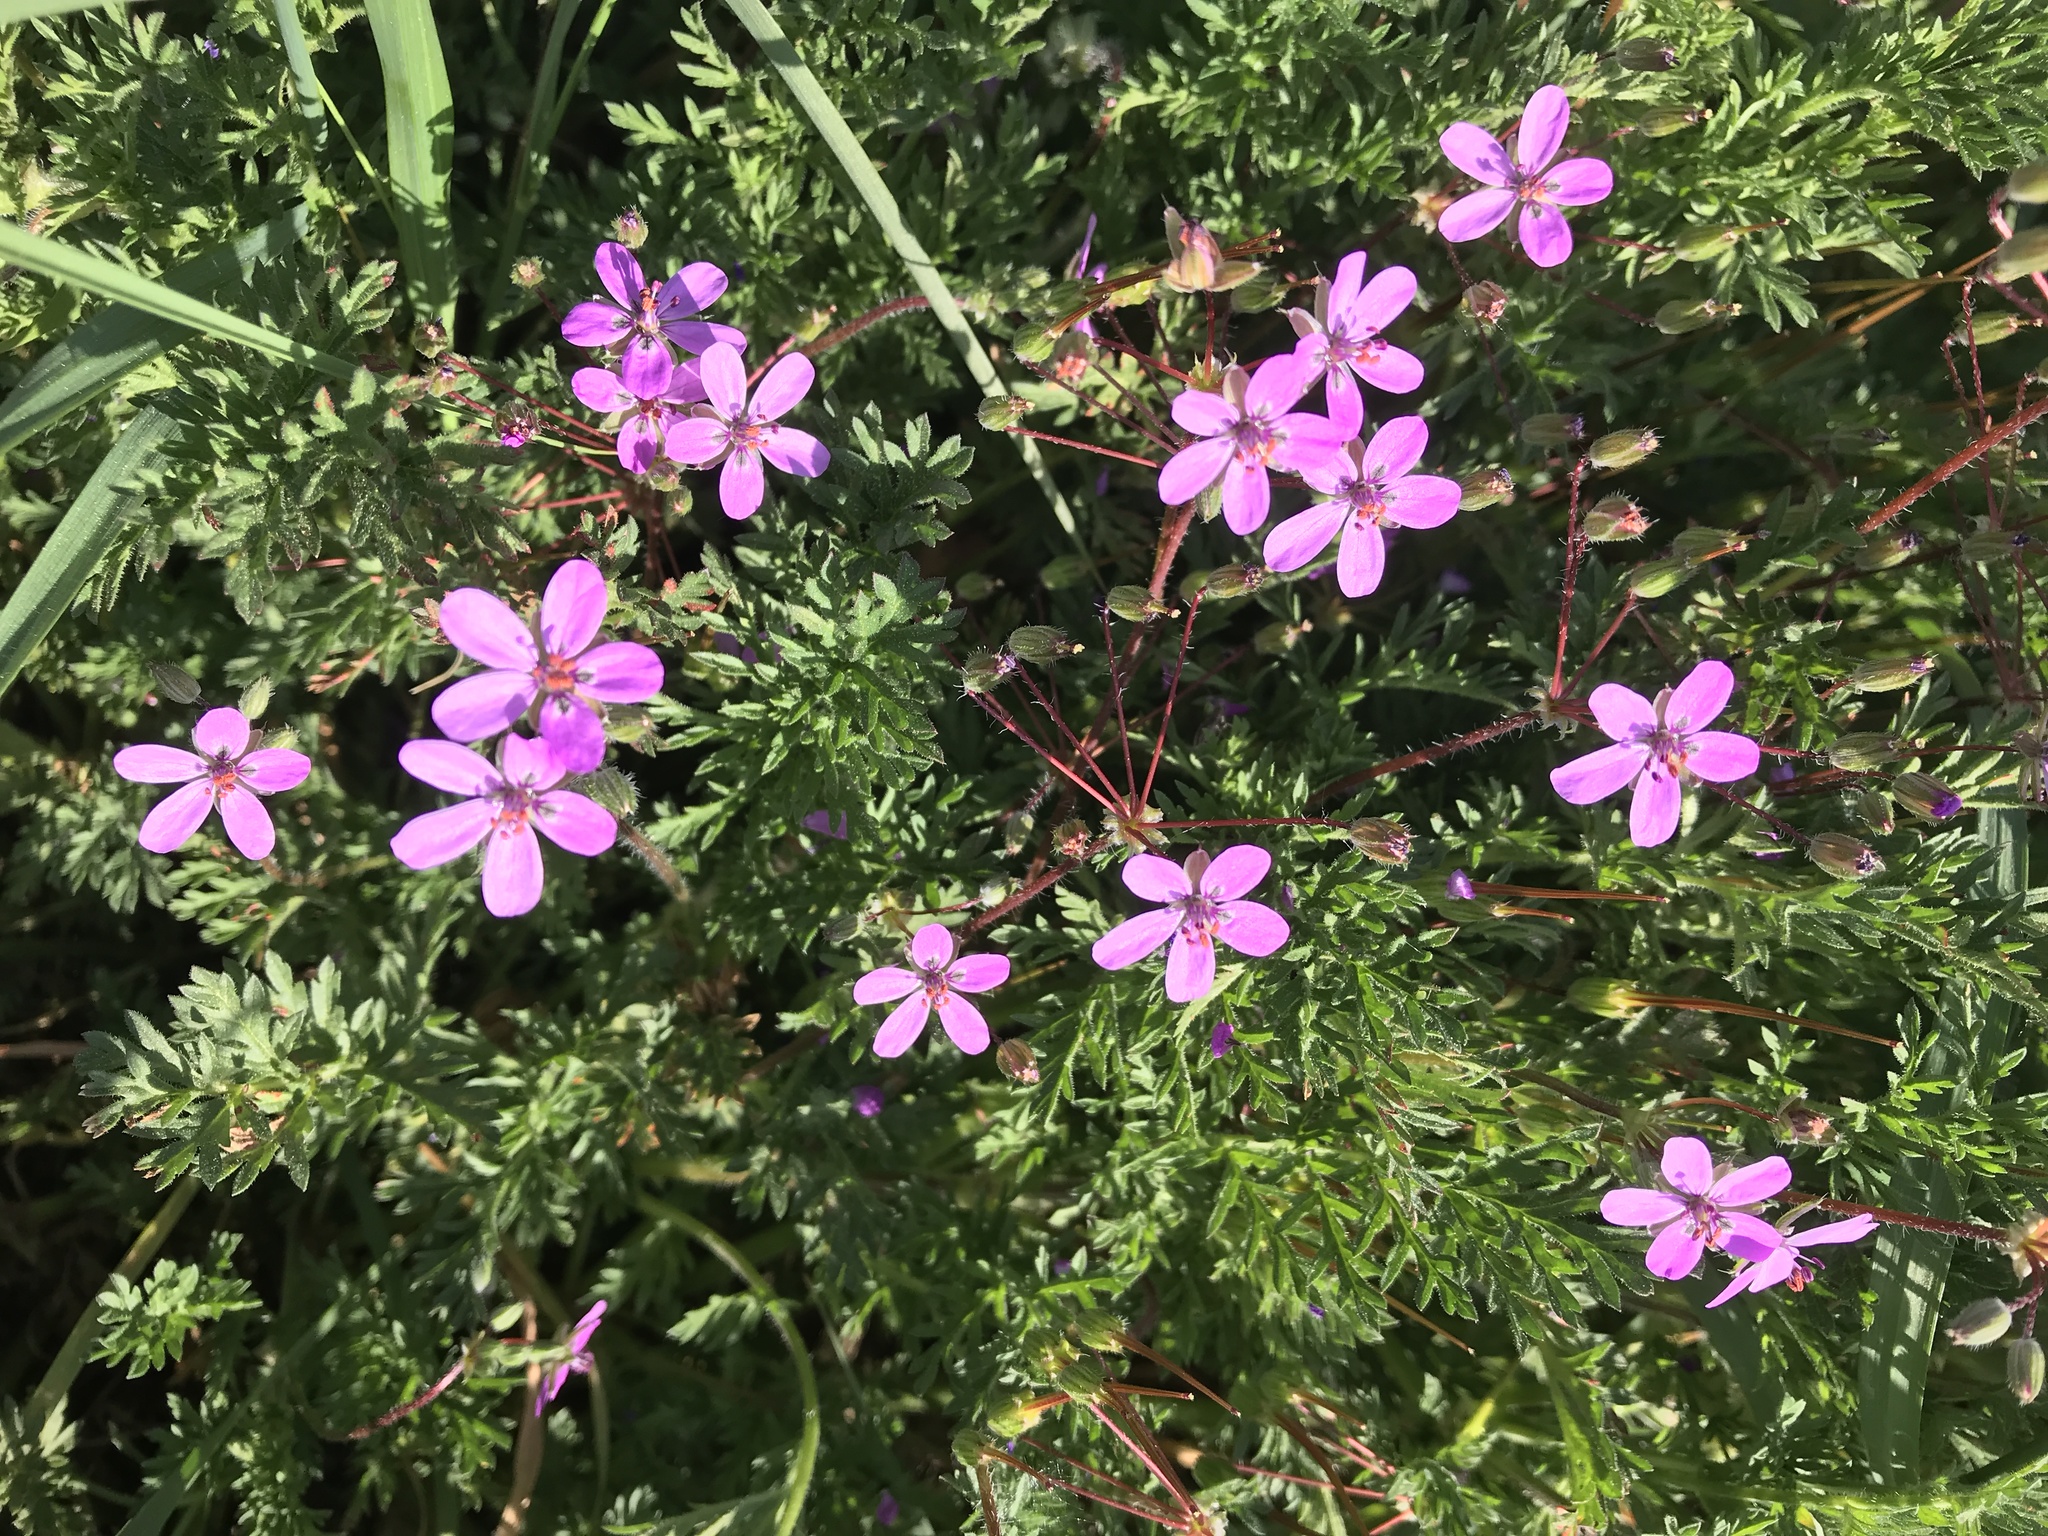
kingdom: Plantae
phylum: Tracheophyta
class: Magnoliopsida
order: Geraniales
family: Geraniaceae
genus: Erodium
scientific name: Erodium cicutarium
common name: Common stork's-bill
